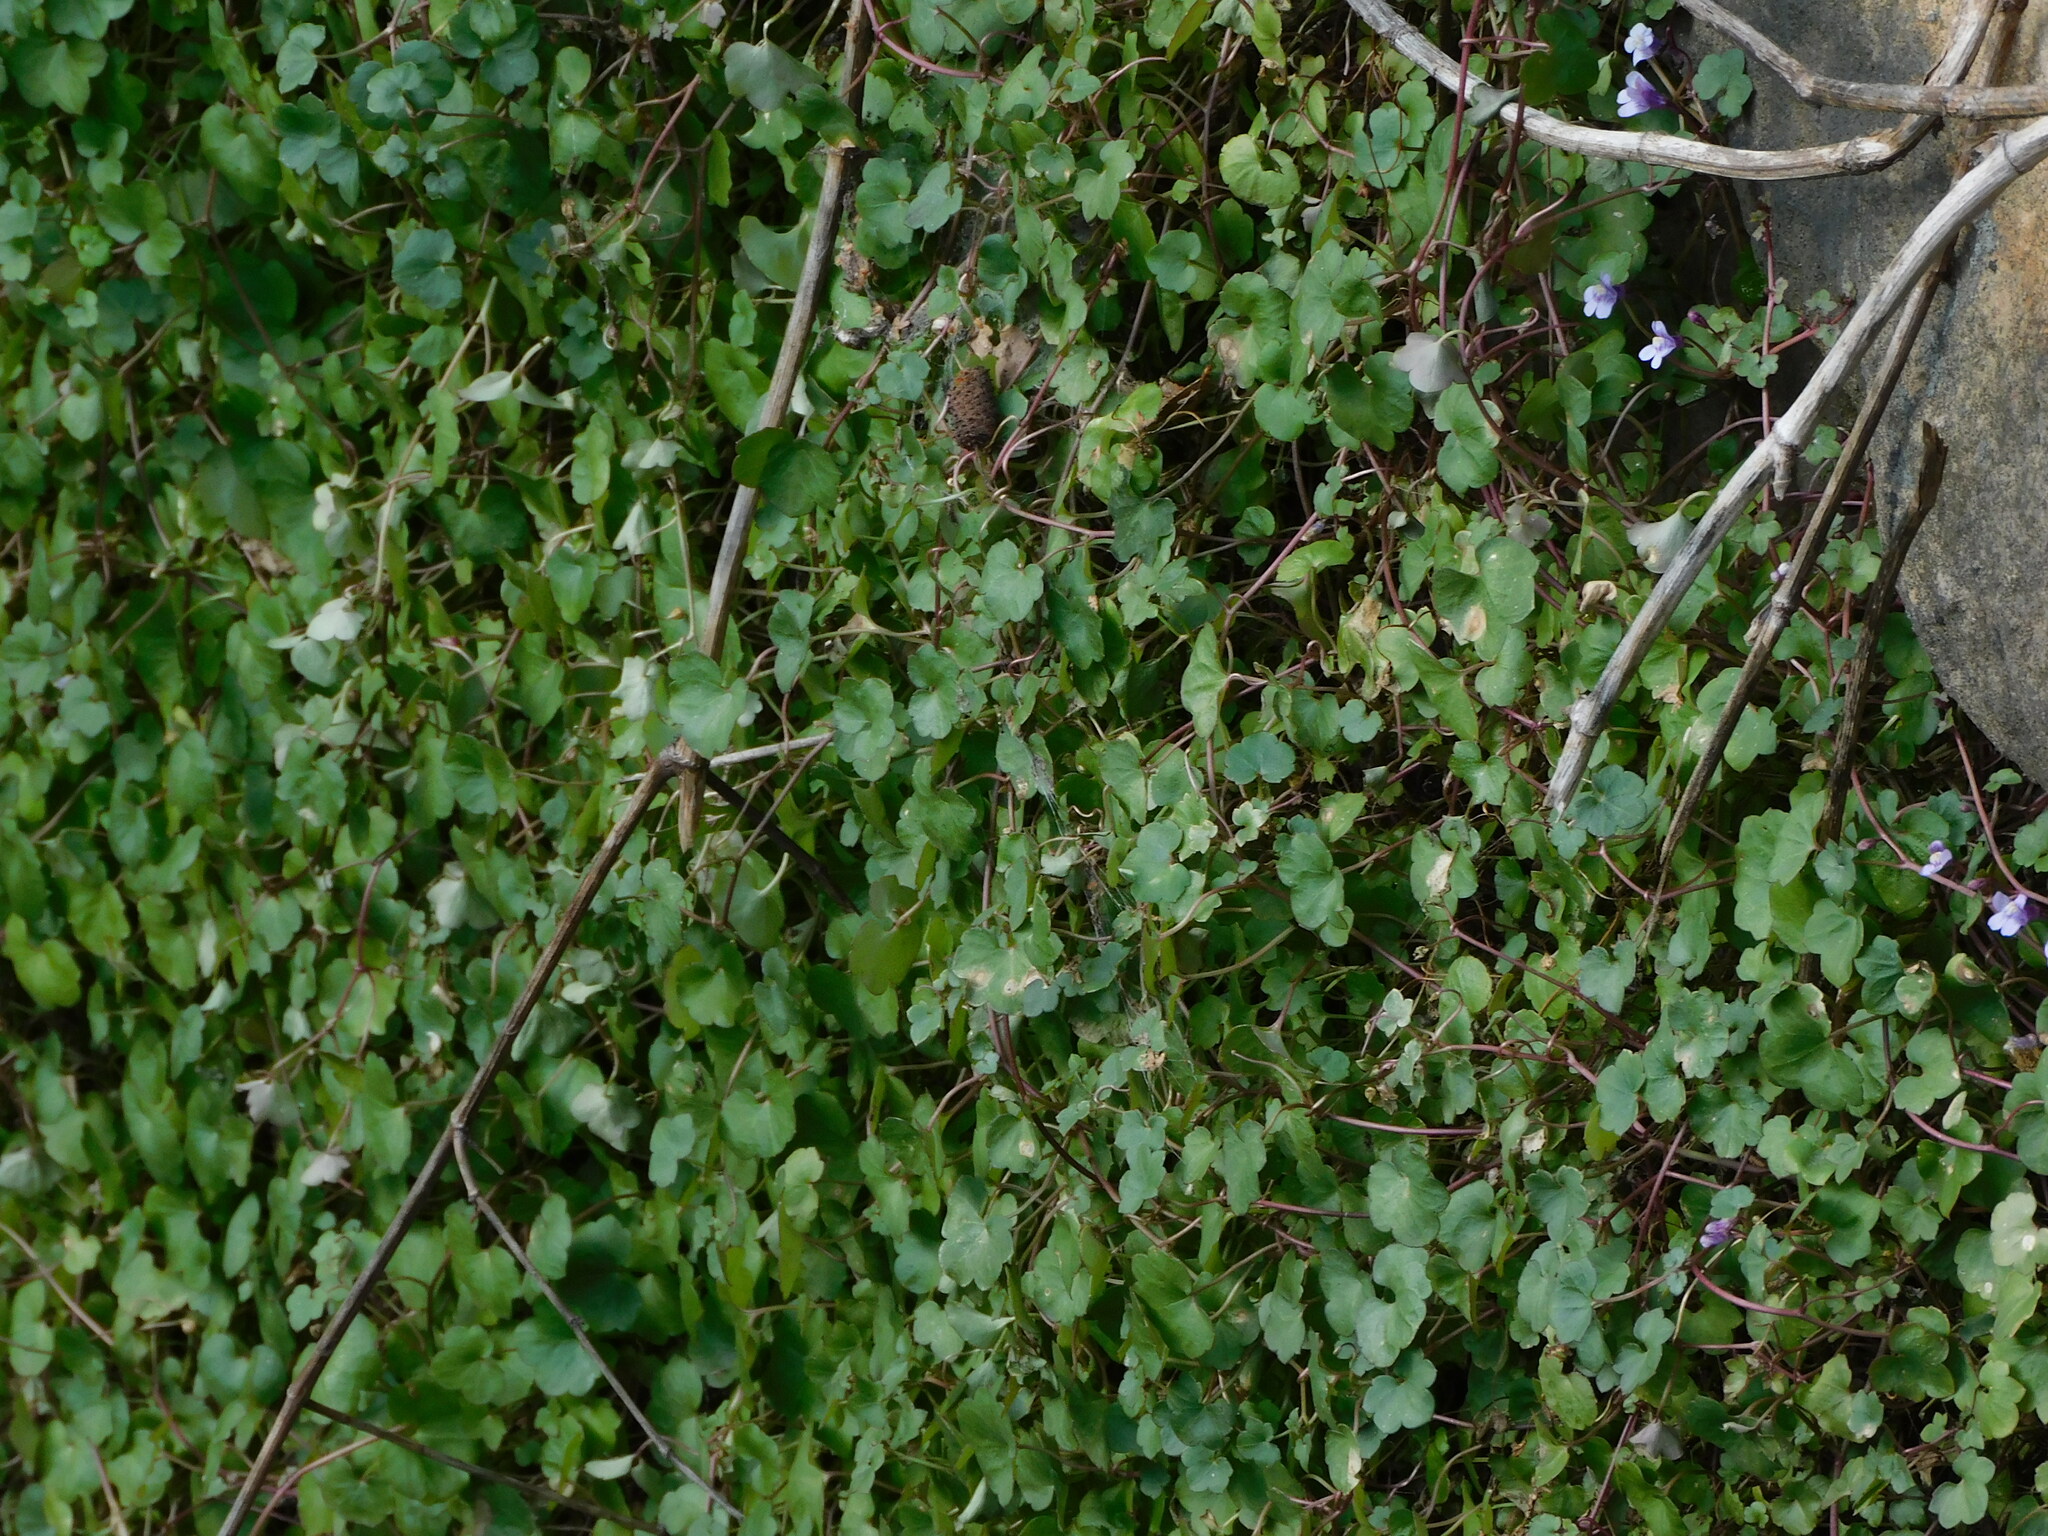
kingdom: Plantae
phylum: Tracheophyta
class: Magnoliopsida
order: Lamiales
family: Plantaginaceae
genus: Cymbalaria
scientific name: Cymbalaria muralis
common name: Ivy-leaved toadflax
